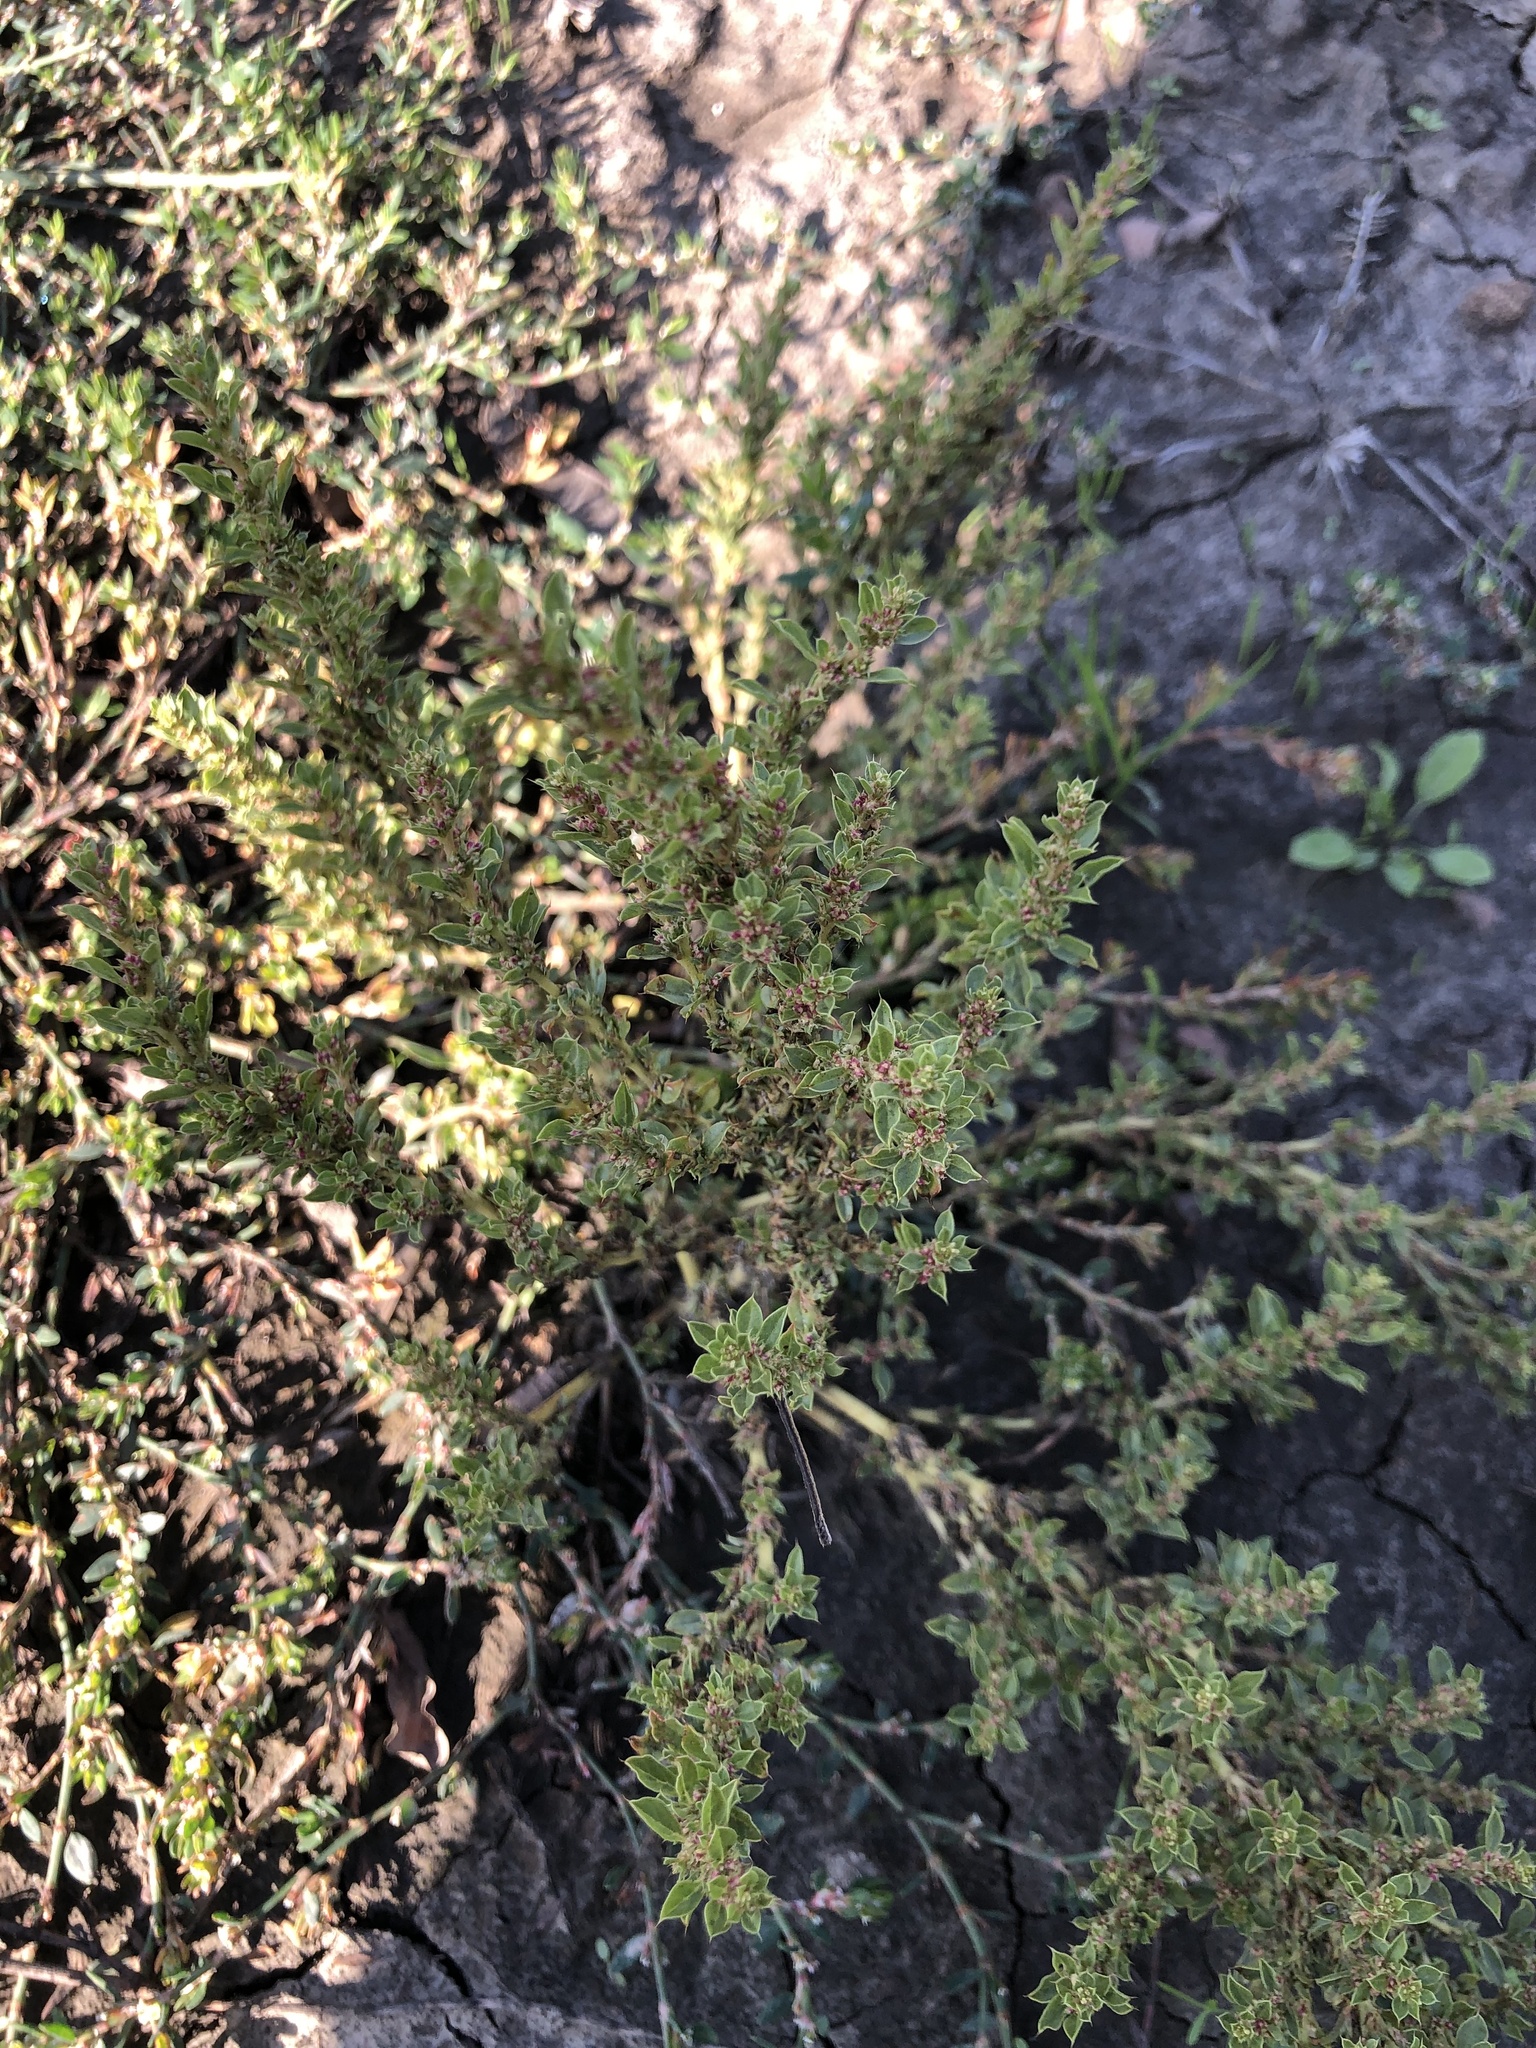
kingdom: Plantae
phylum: Tracheophyta
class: Magnoliopsida
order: Caryophyllales
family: Amaranthaceae
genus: Amaranthus
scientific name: Amaranthus albus
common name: White pigweed
